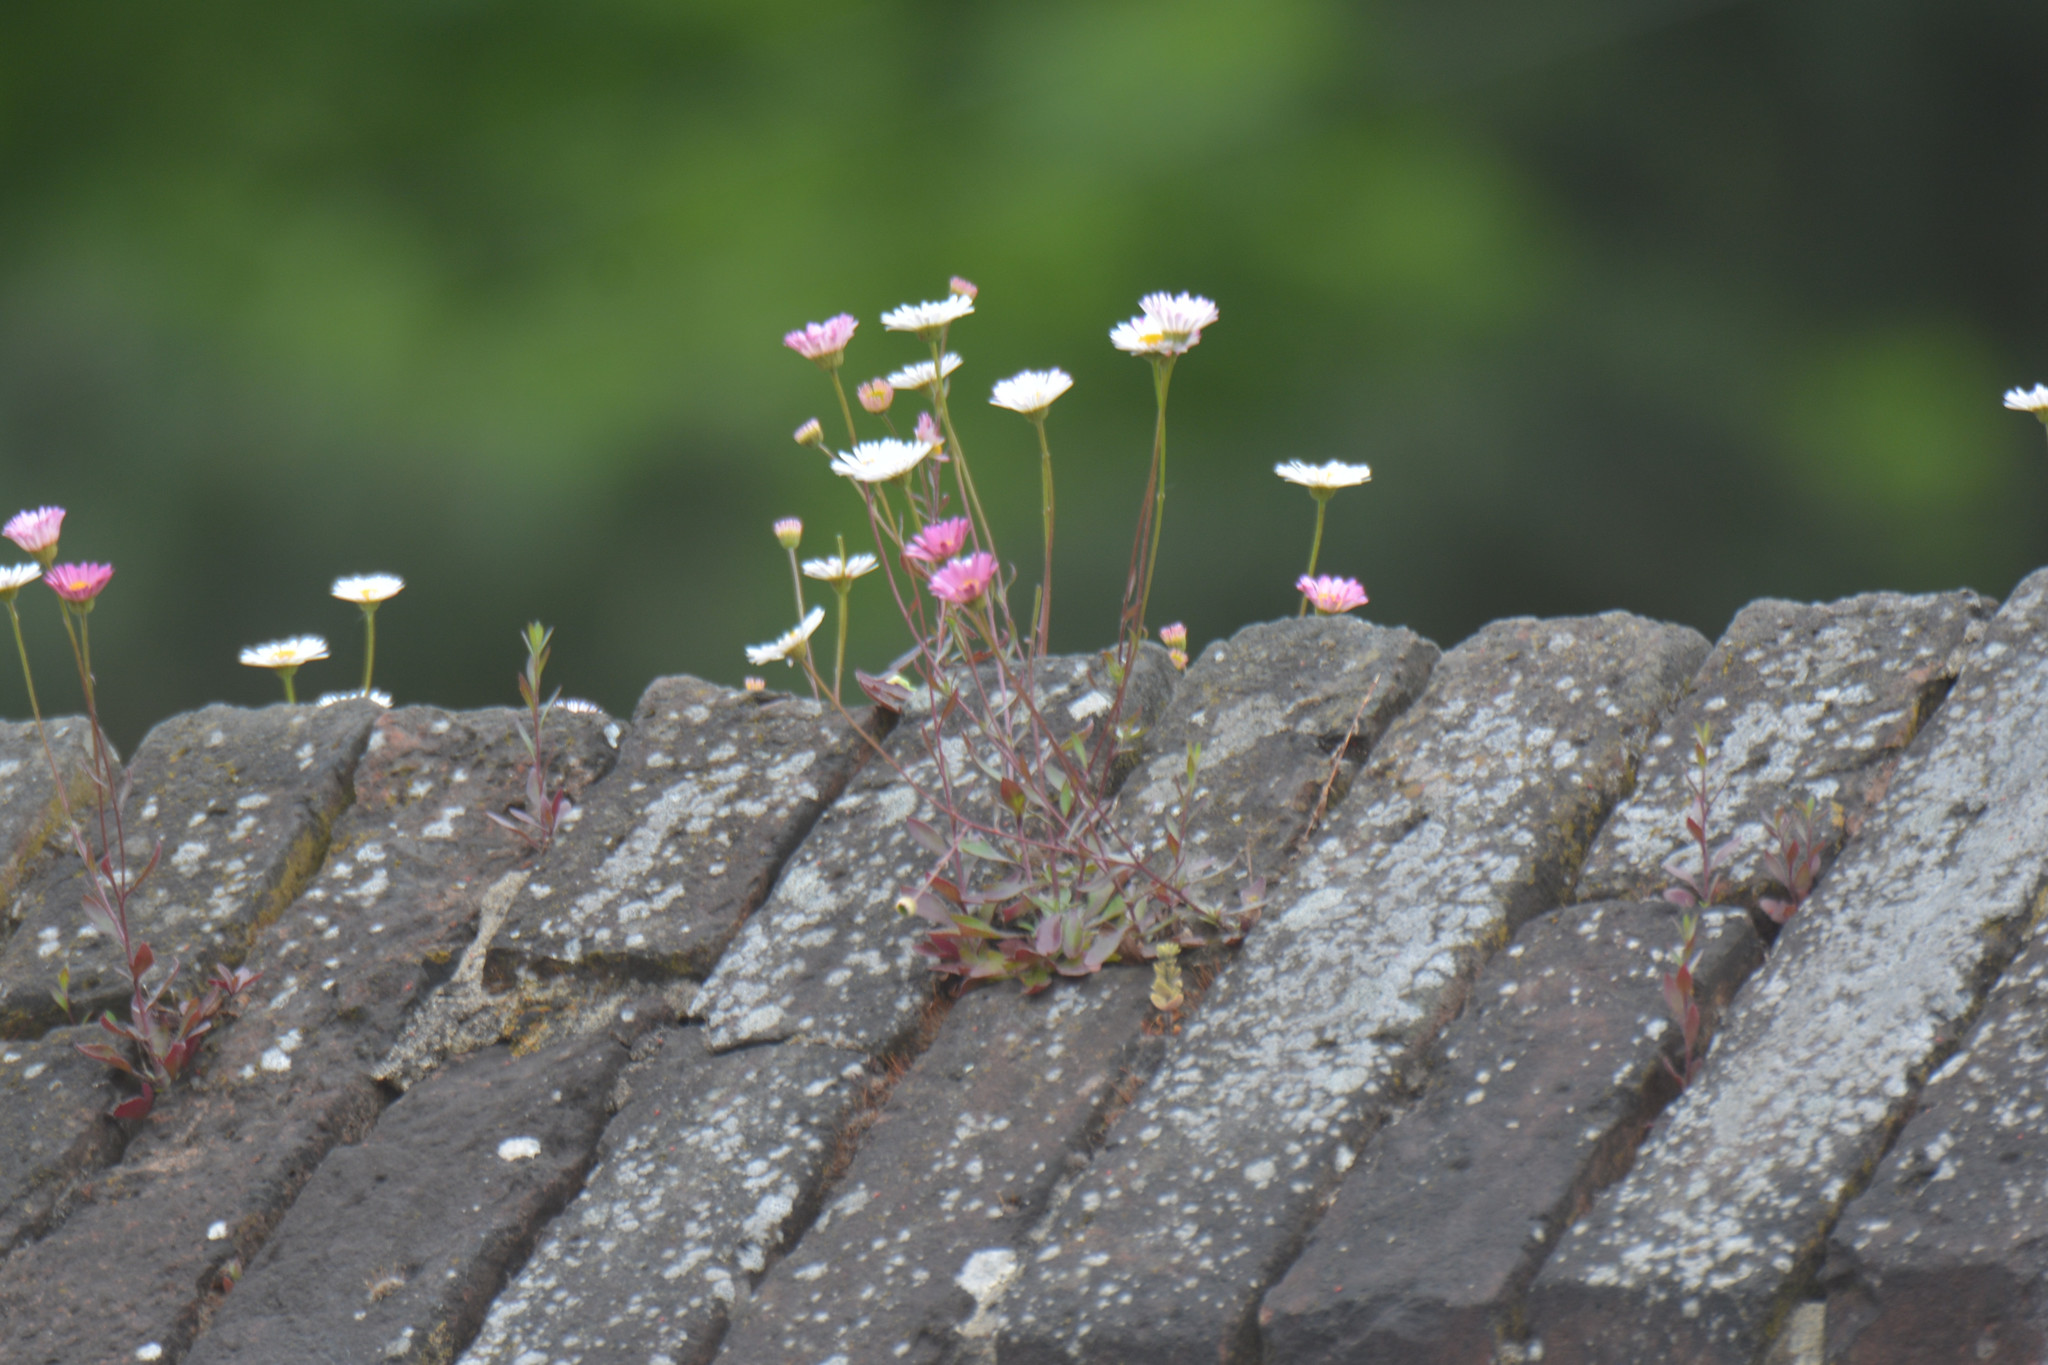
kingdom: Plantae
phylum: Tracheophyta
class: Magnoliopsida
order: Asterales
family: Asteraceae
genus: Erigeron
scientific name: Erigeron karvinskianus
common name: Mexican fleabane
